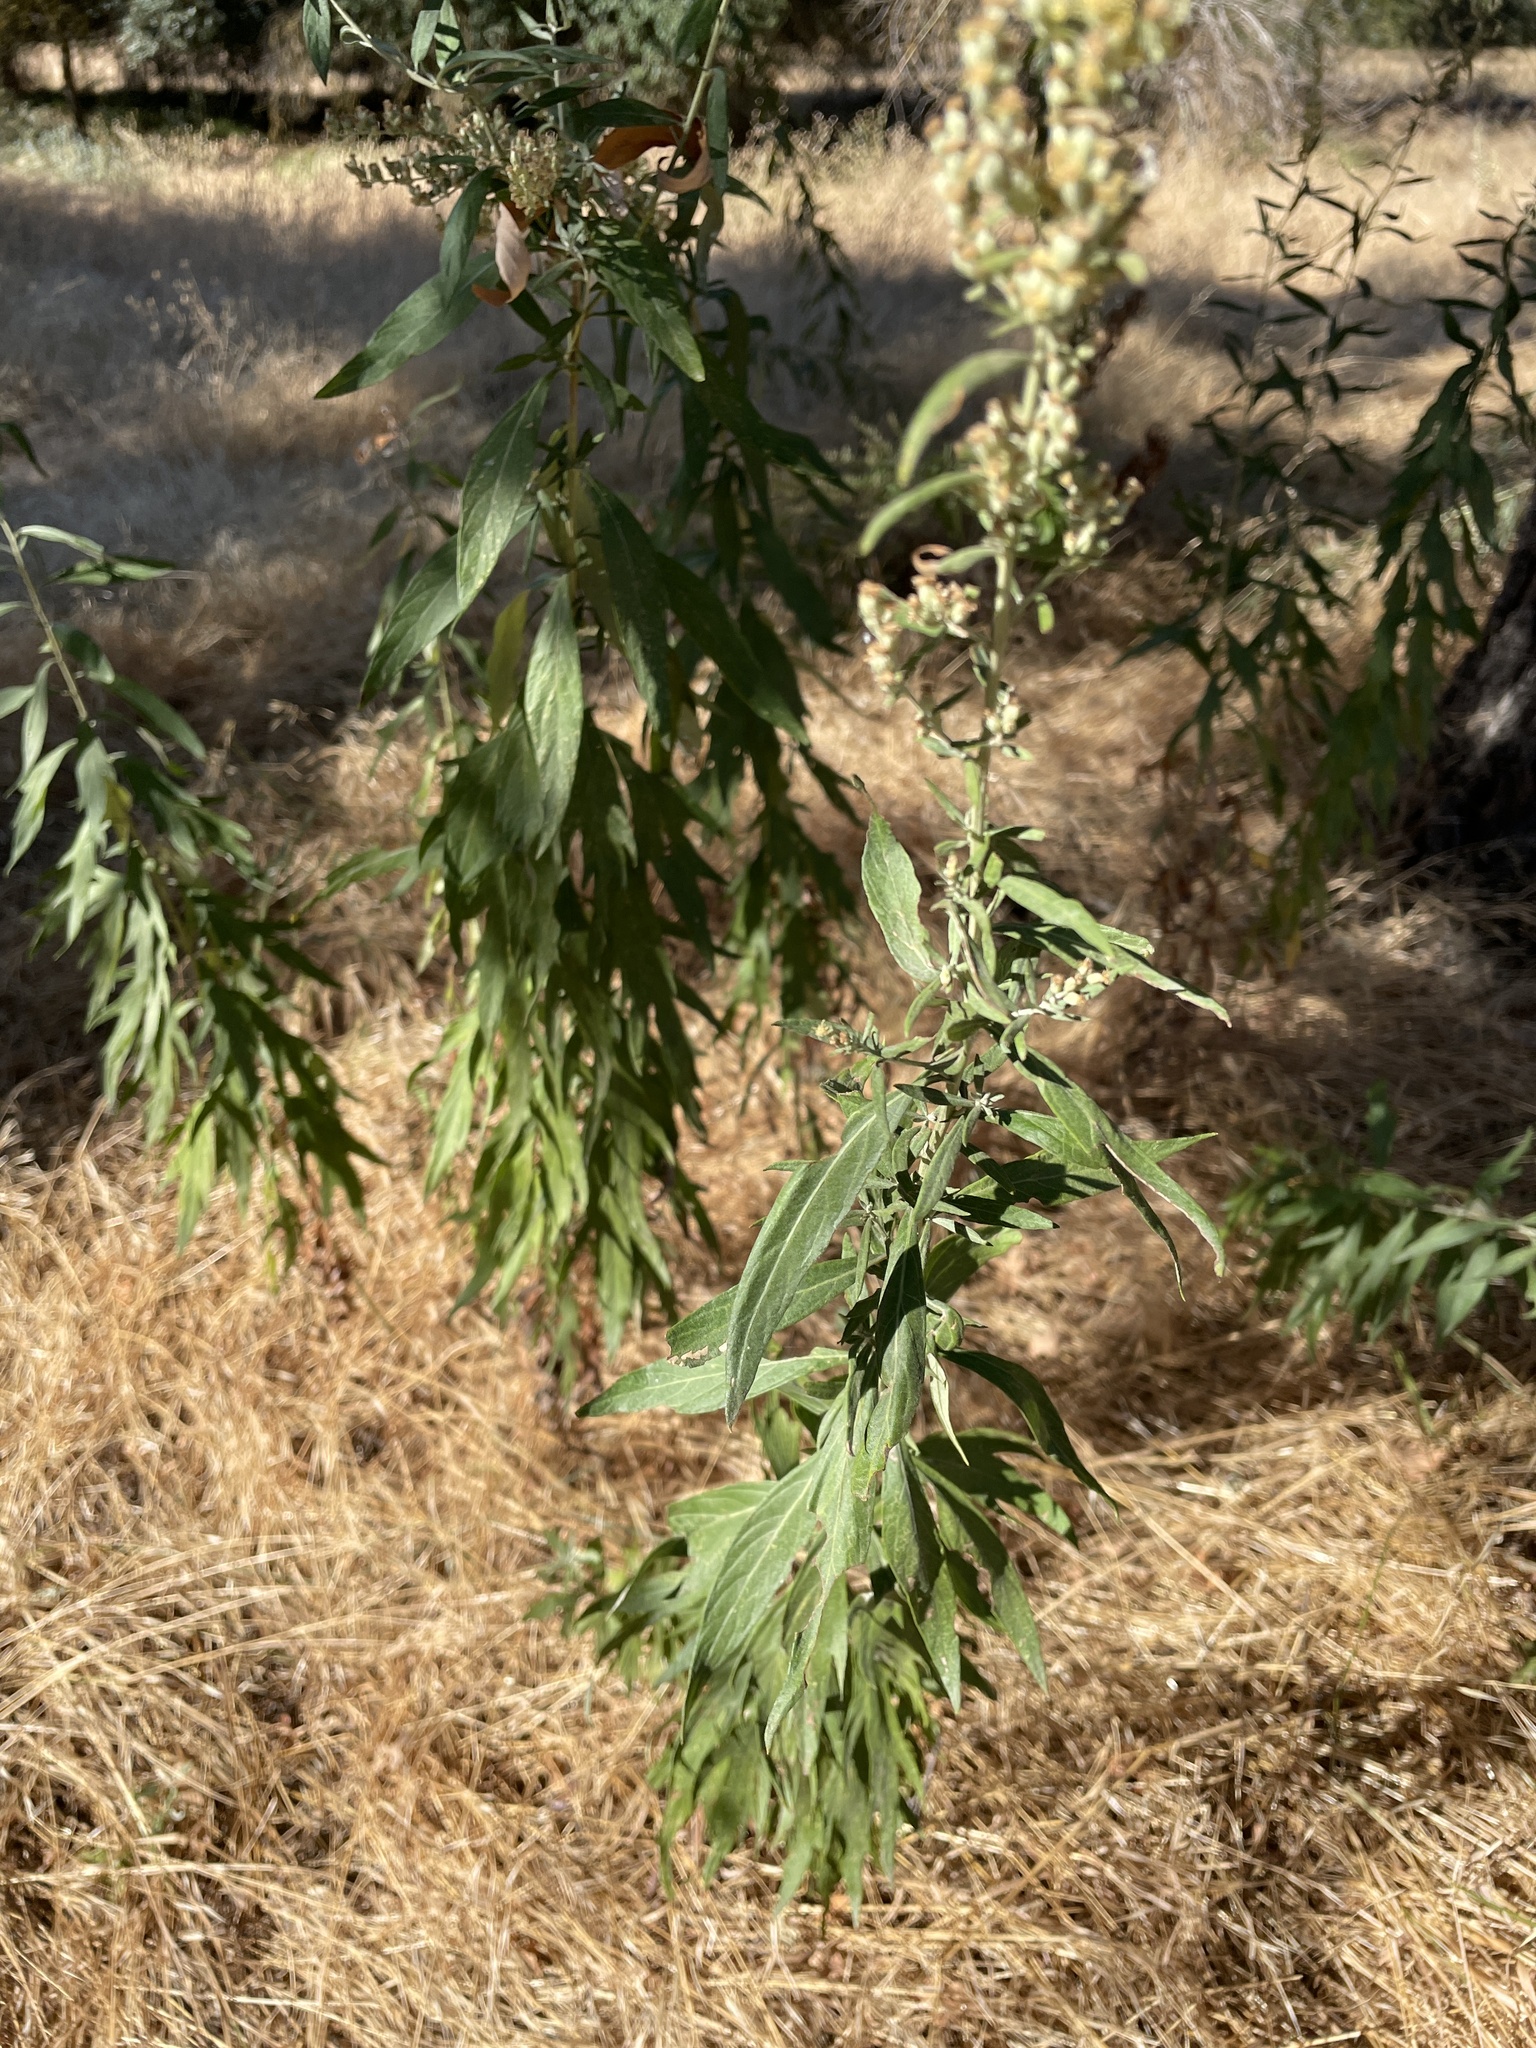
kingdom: Plantae
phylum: Tracheophyta
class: Magnoliopsida
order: Asterales
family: Asteraceae
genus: Artemisia
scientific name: Artemisia douglasiana
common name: Northwest mugwort
